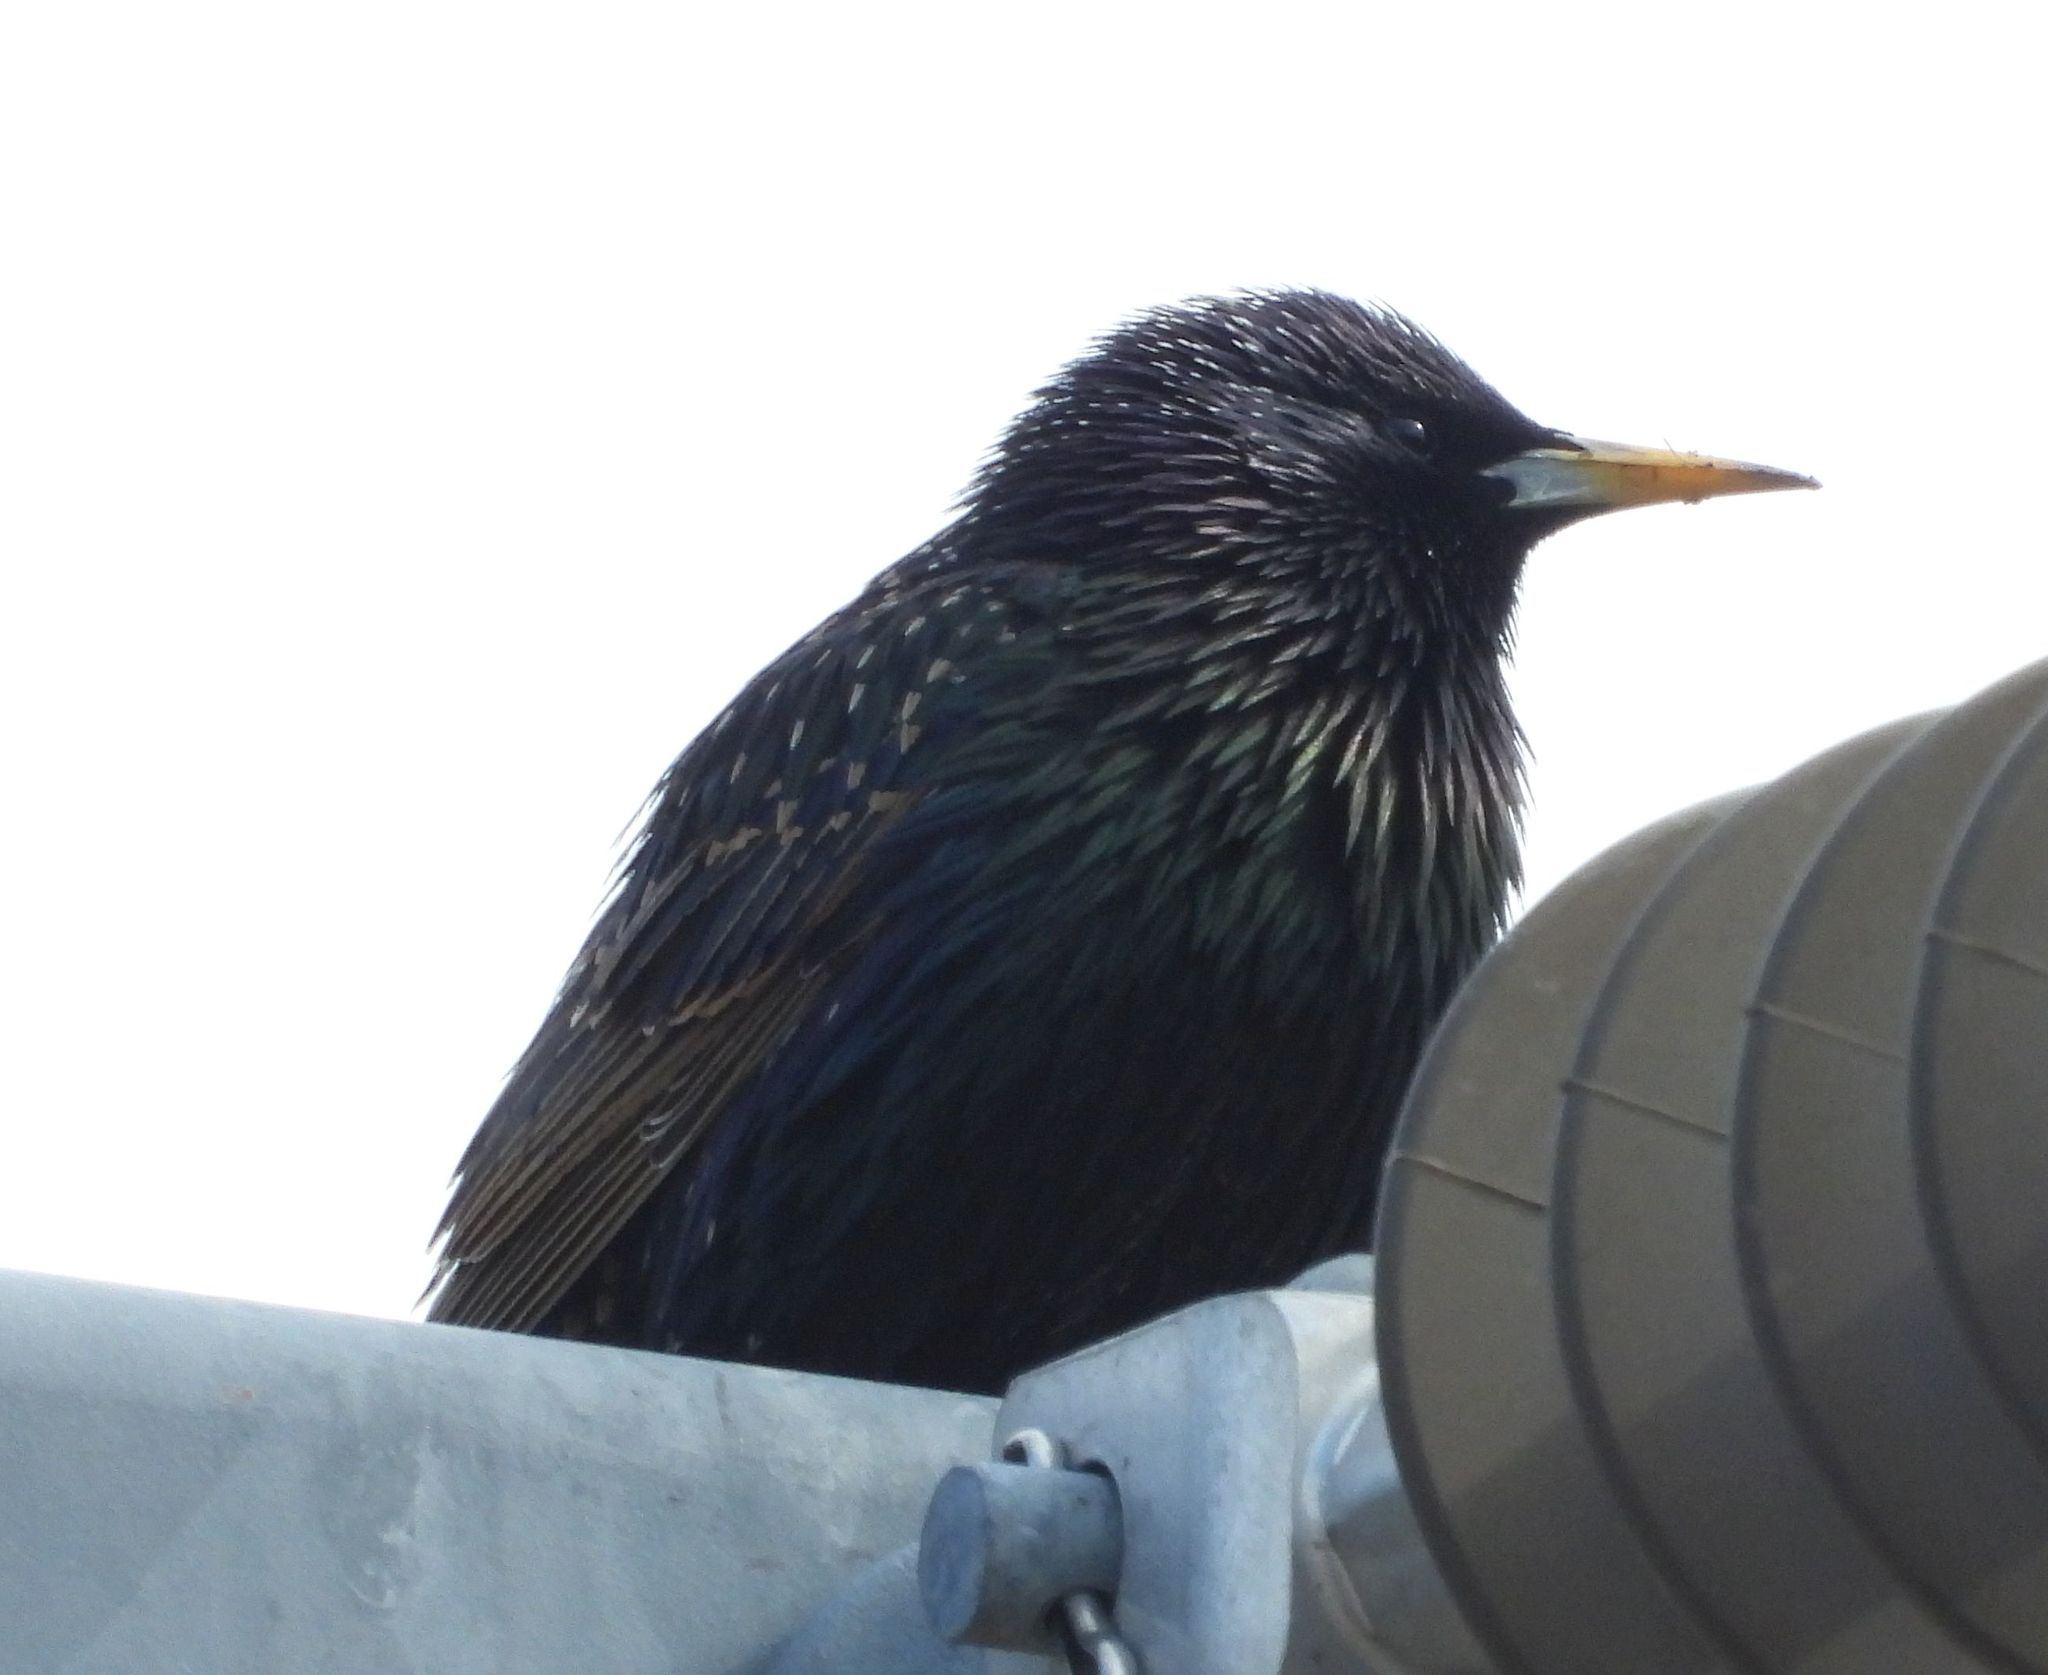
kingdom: Animalia
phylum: Chordata
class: Aves
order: Passeriformes
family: Sturnidae
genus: Sturnus
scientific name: Sturnus vulgaris
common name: Common starling
